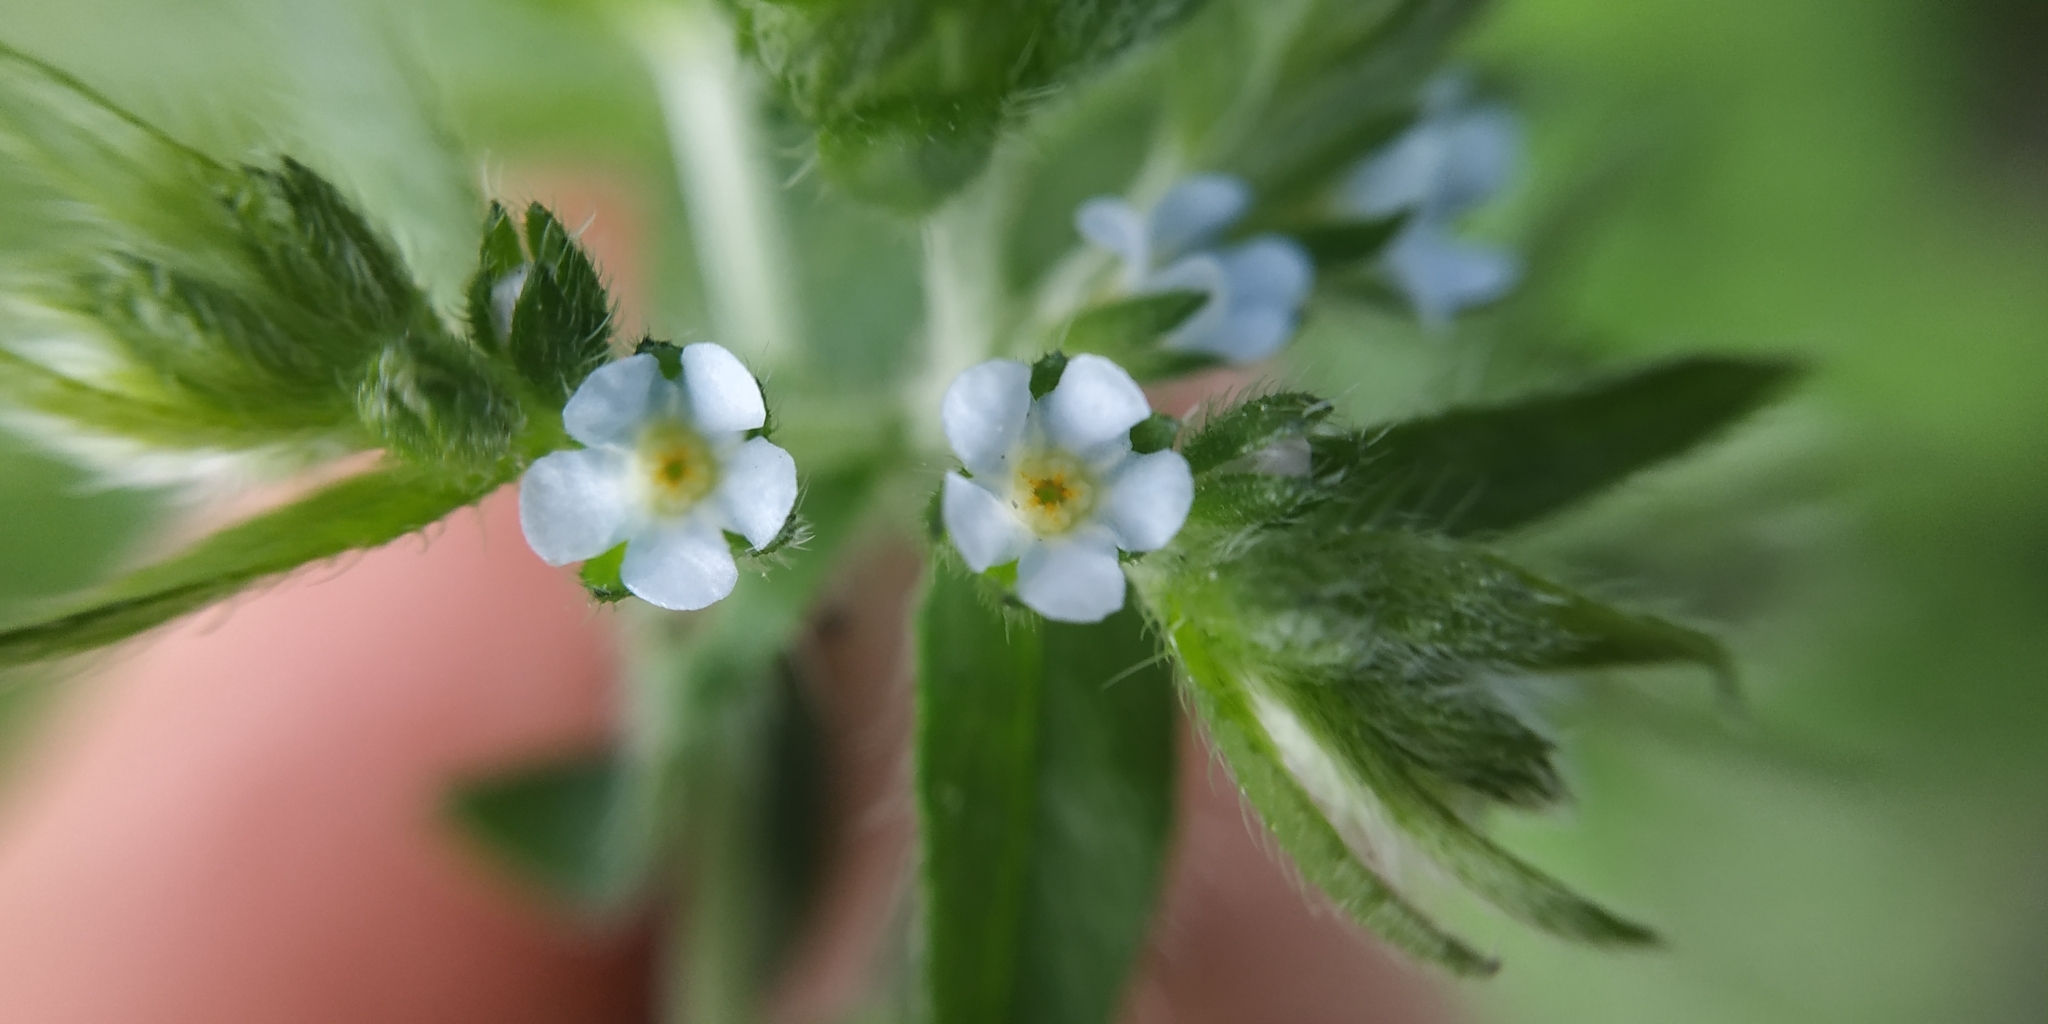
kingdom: Plantae
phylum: Tracheophyta
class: Magnoliopsida
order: Boraginales
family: Boraginaceae
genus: Lappula
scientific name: Lappula squarrosa
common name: European stickseed
